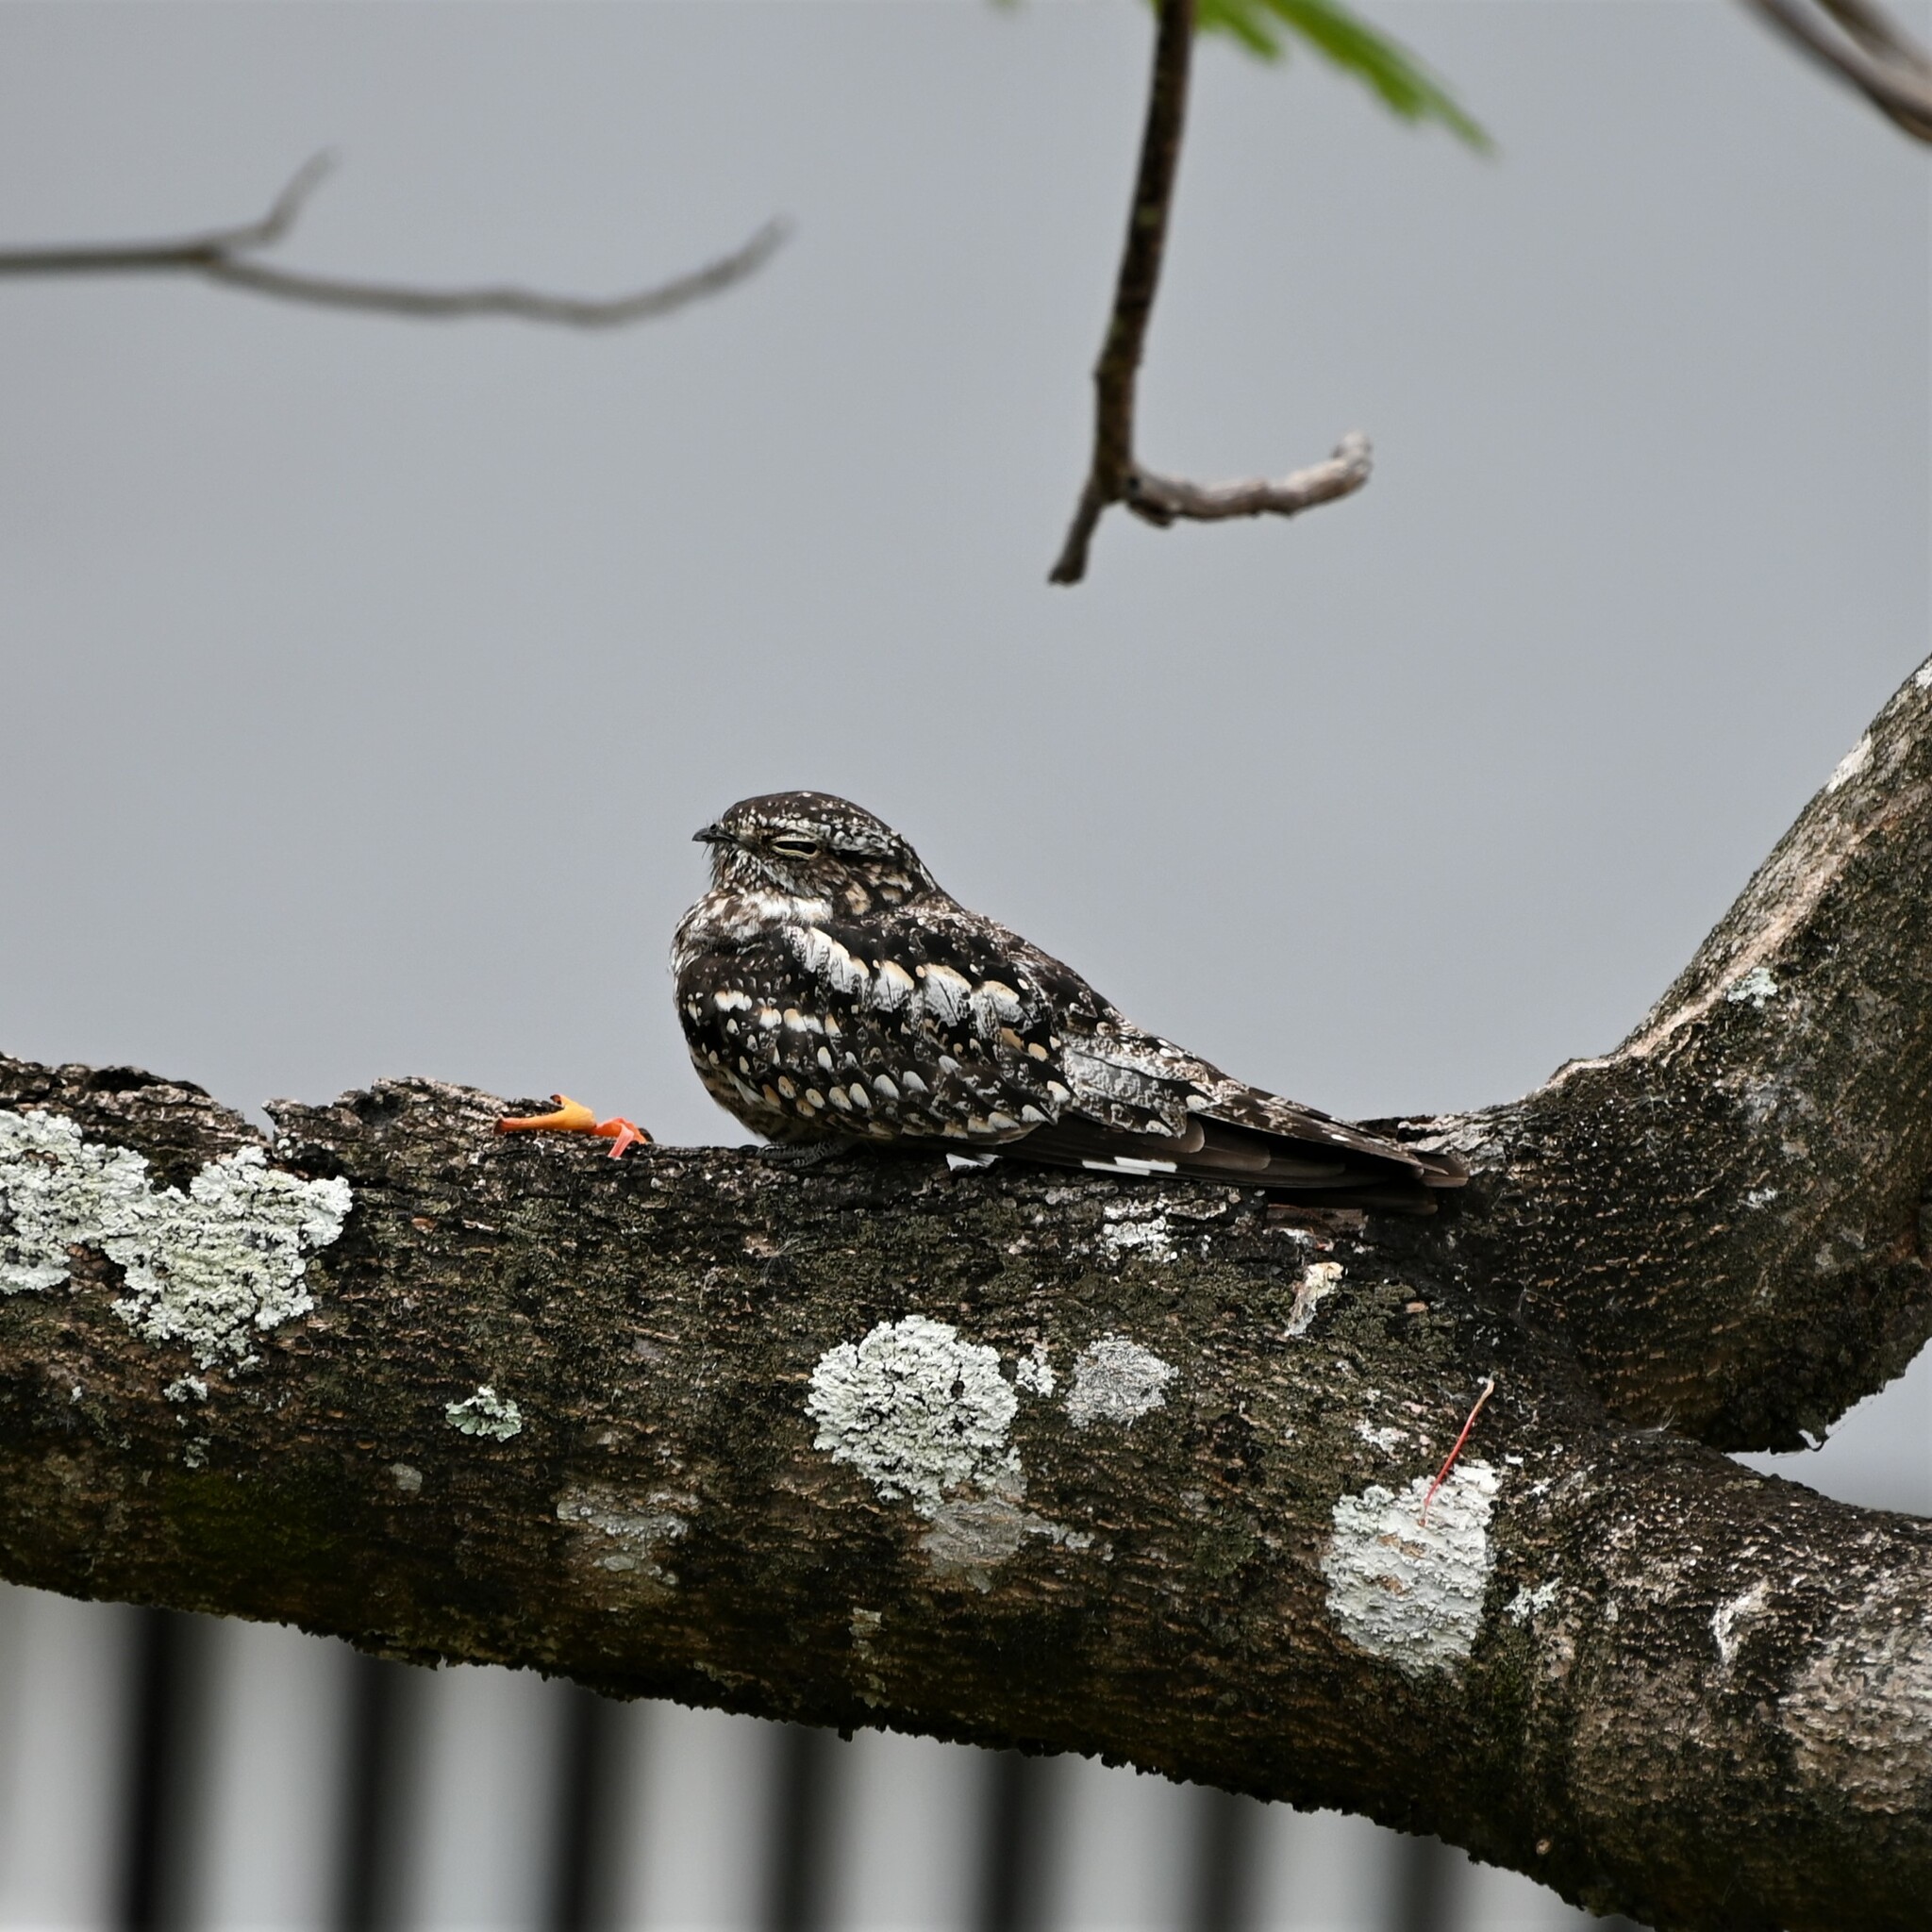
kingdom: Animalia
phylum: Chordata
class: Aves
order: Caprimulgiformes
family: Caprimulgidae
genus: Chordeiles
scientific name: Chordeiles acutipennis
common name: Lesser nighthawk
